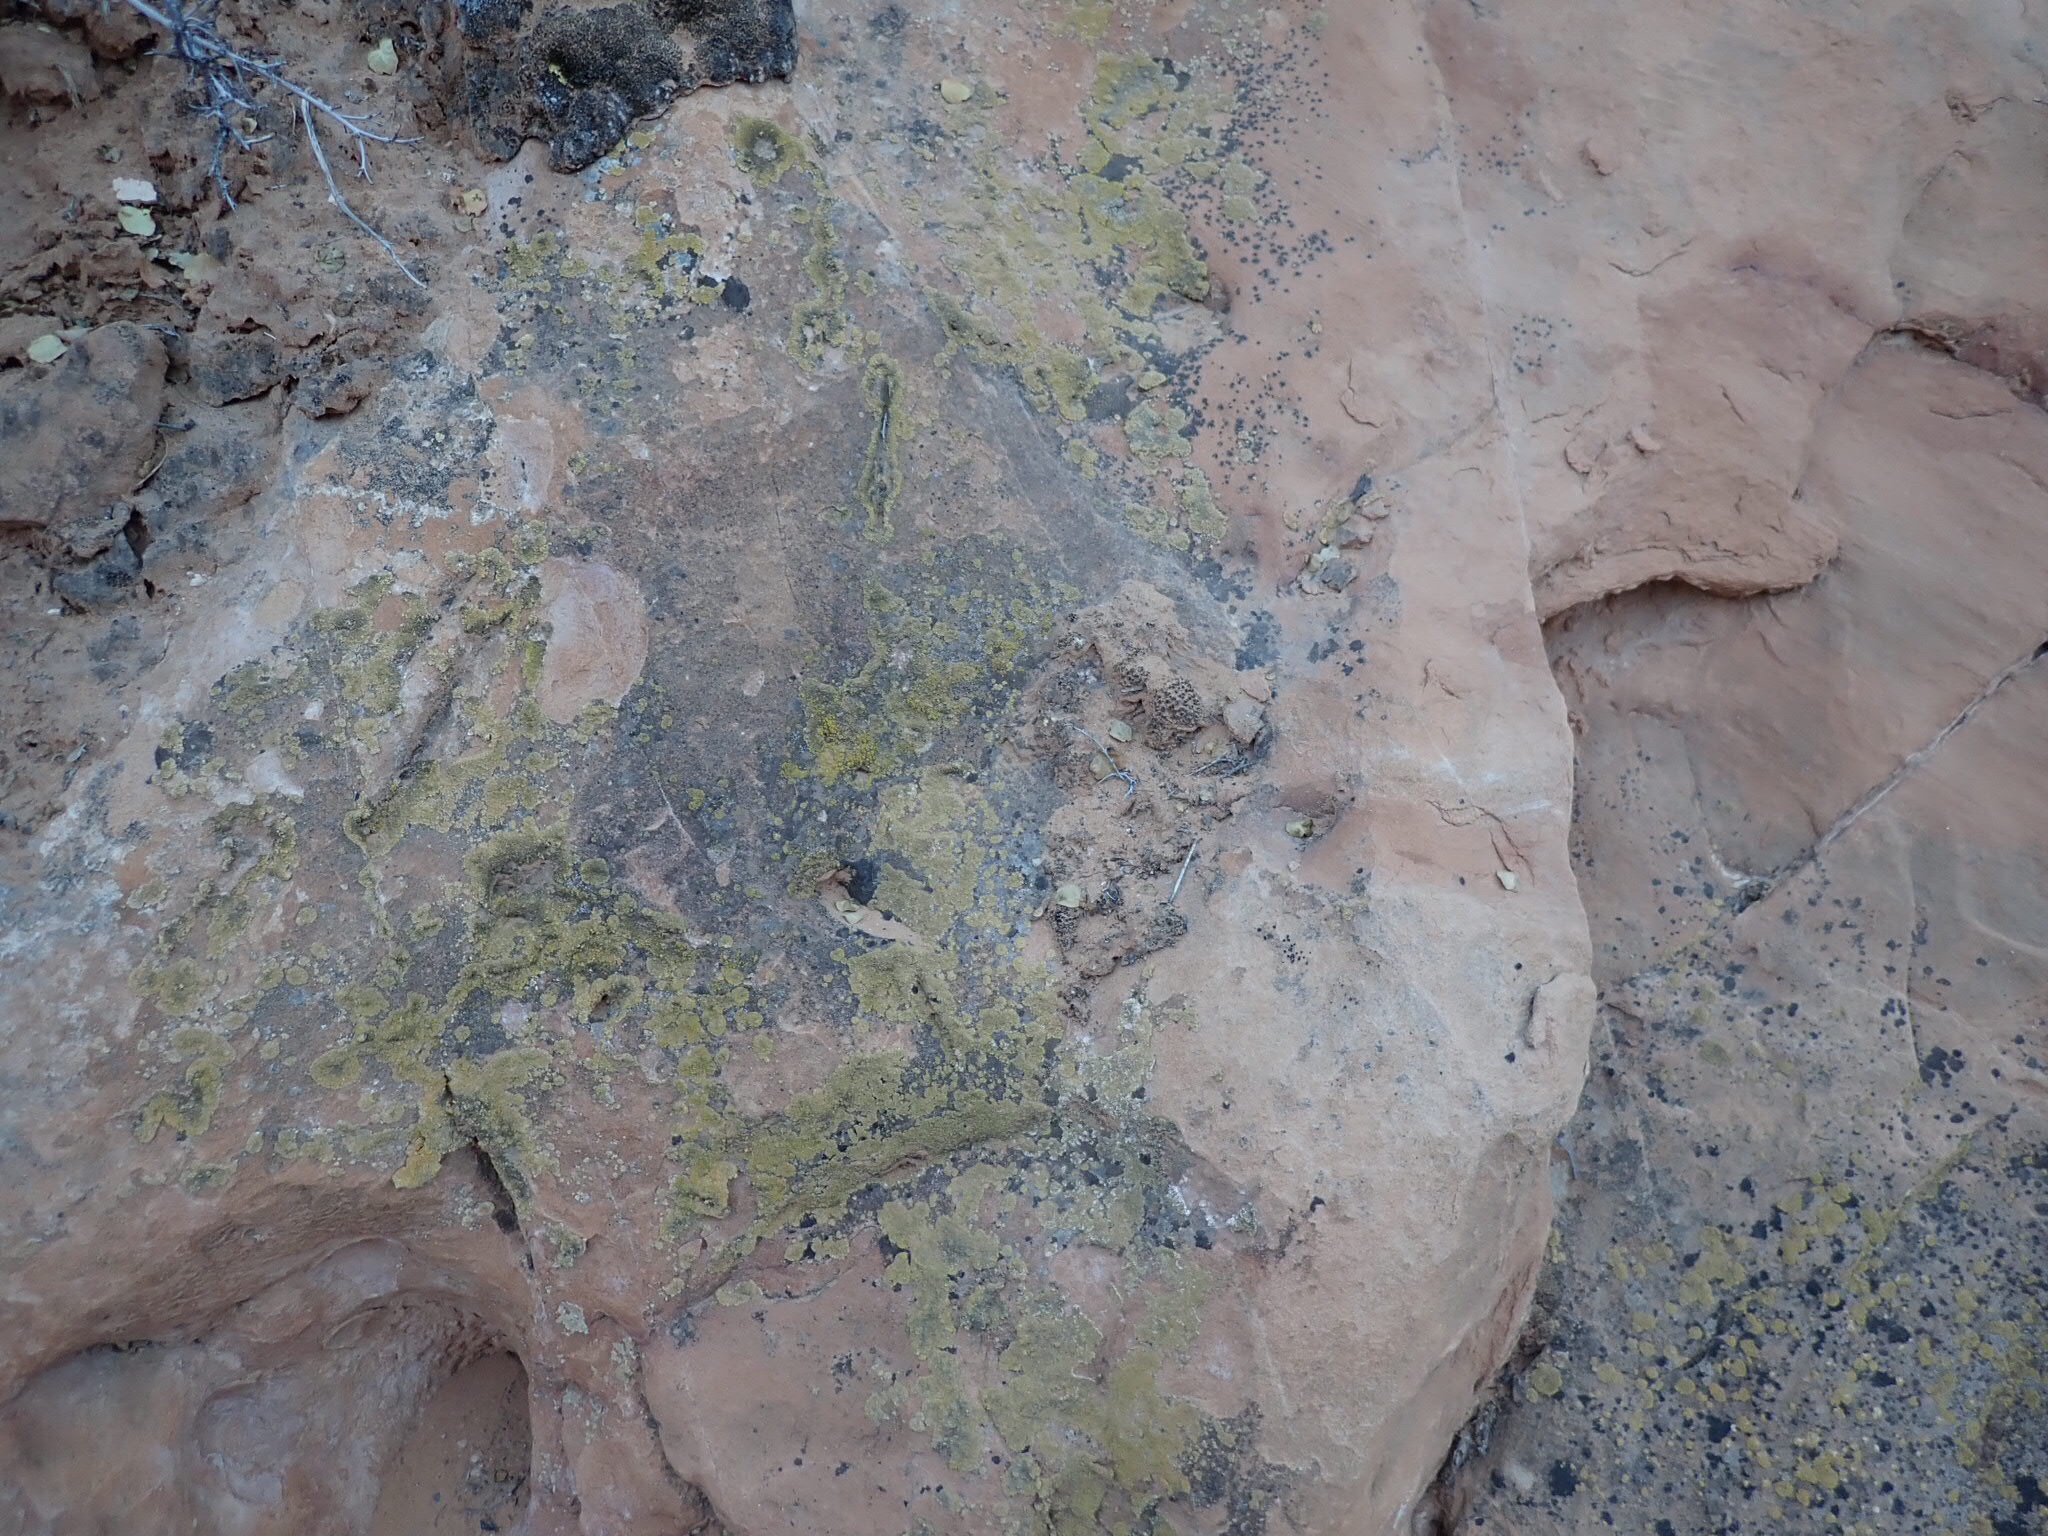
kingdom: Fungi
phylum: Ascomycota
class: Lecanoromycetes
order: Lecanorales
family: Lecanoraceae
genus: Lecanora
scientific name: Lecanora mellea
